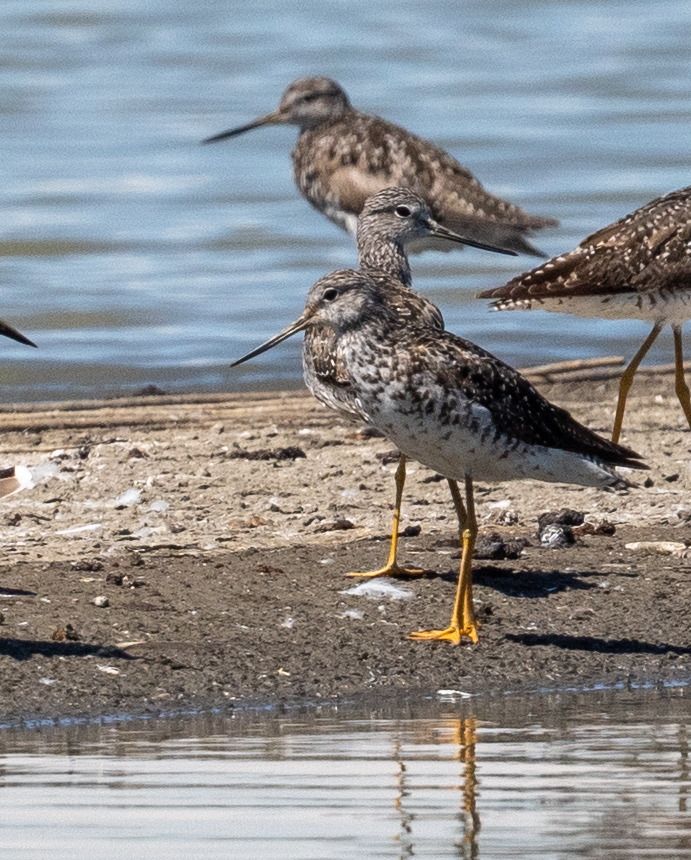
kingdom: Animalia
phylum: Chordata
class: Aves
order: Charadriiformes
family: Scolopacidae
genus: Tringa
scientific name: Tringa melanoleuca
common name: Greater yellowlegs
